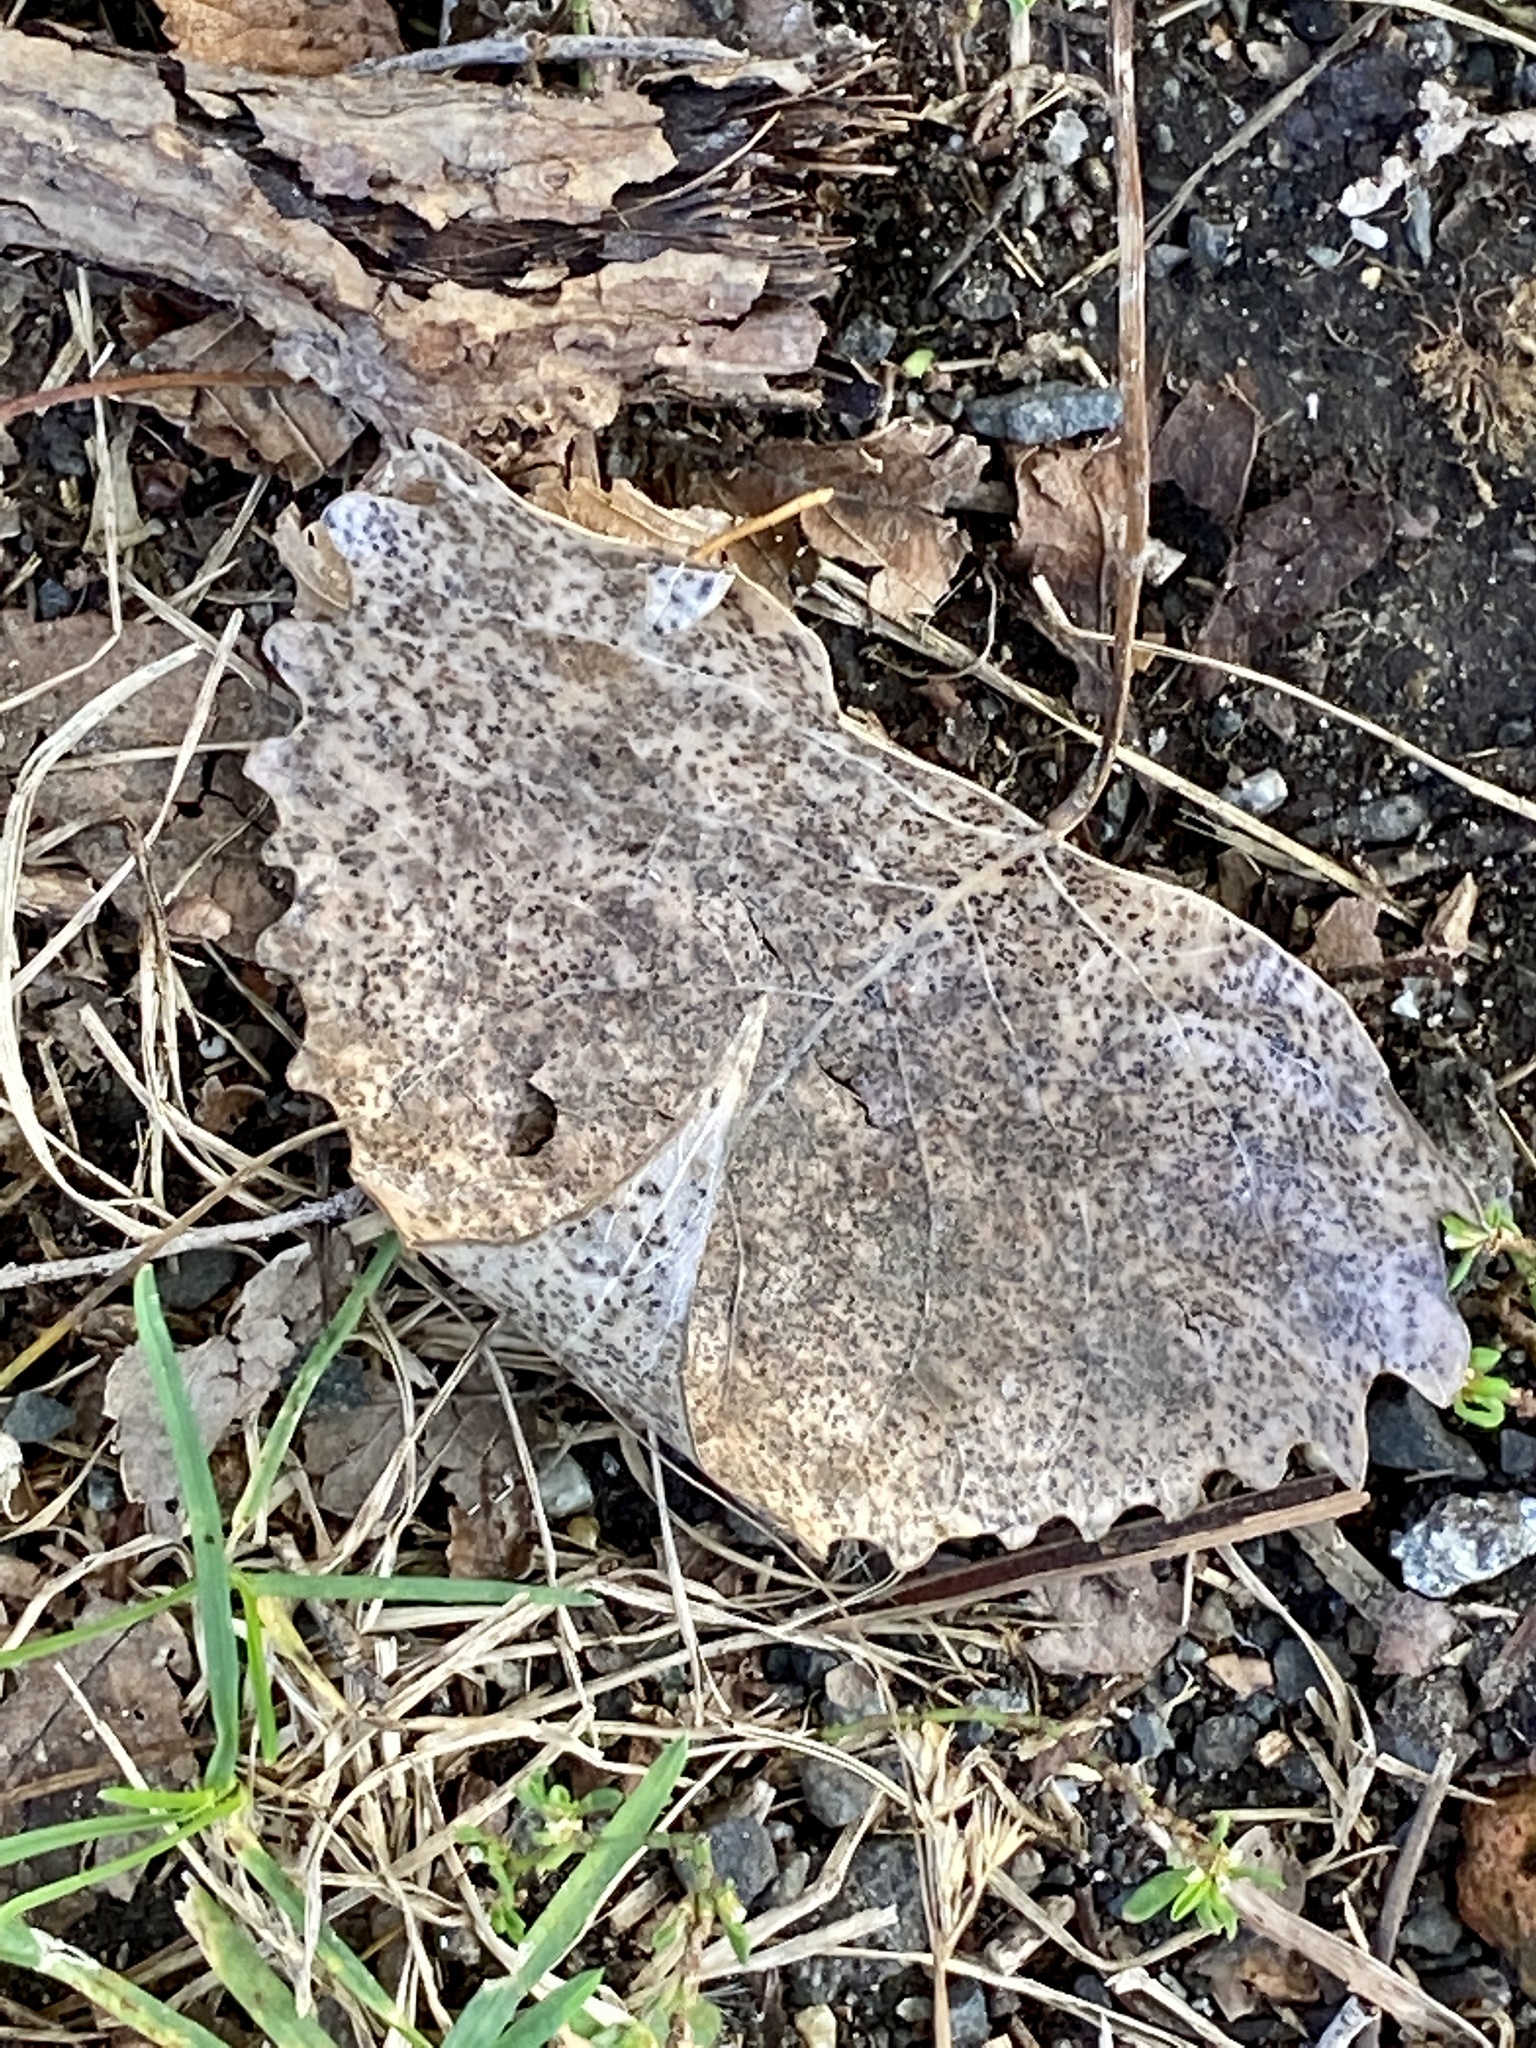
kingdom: Plantae
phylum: Tracheophyta
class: Magnoliopsida
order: Malpighiales
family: Salicaceae
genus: Populus
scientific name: Populus deltoides
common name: Eastern cottonwood
